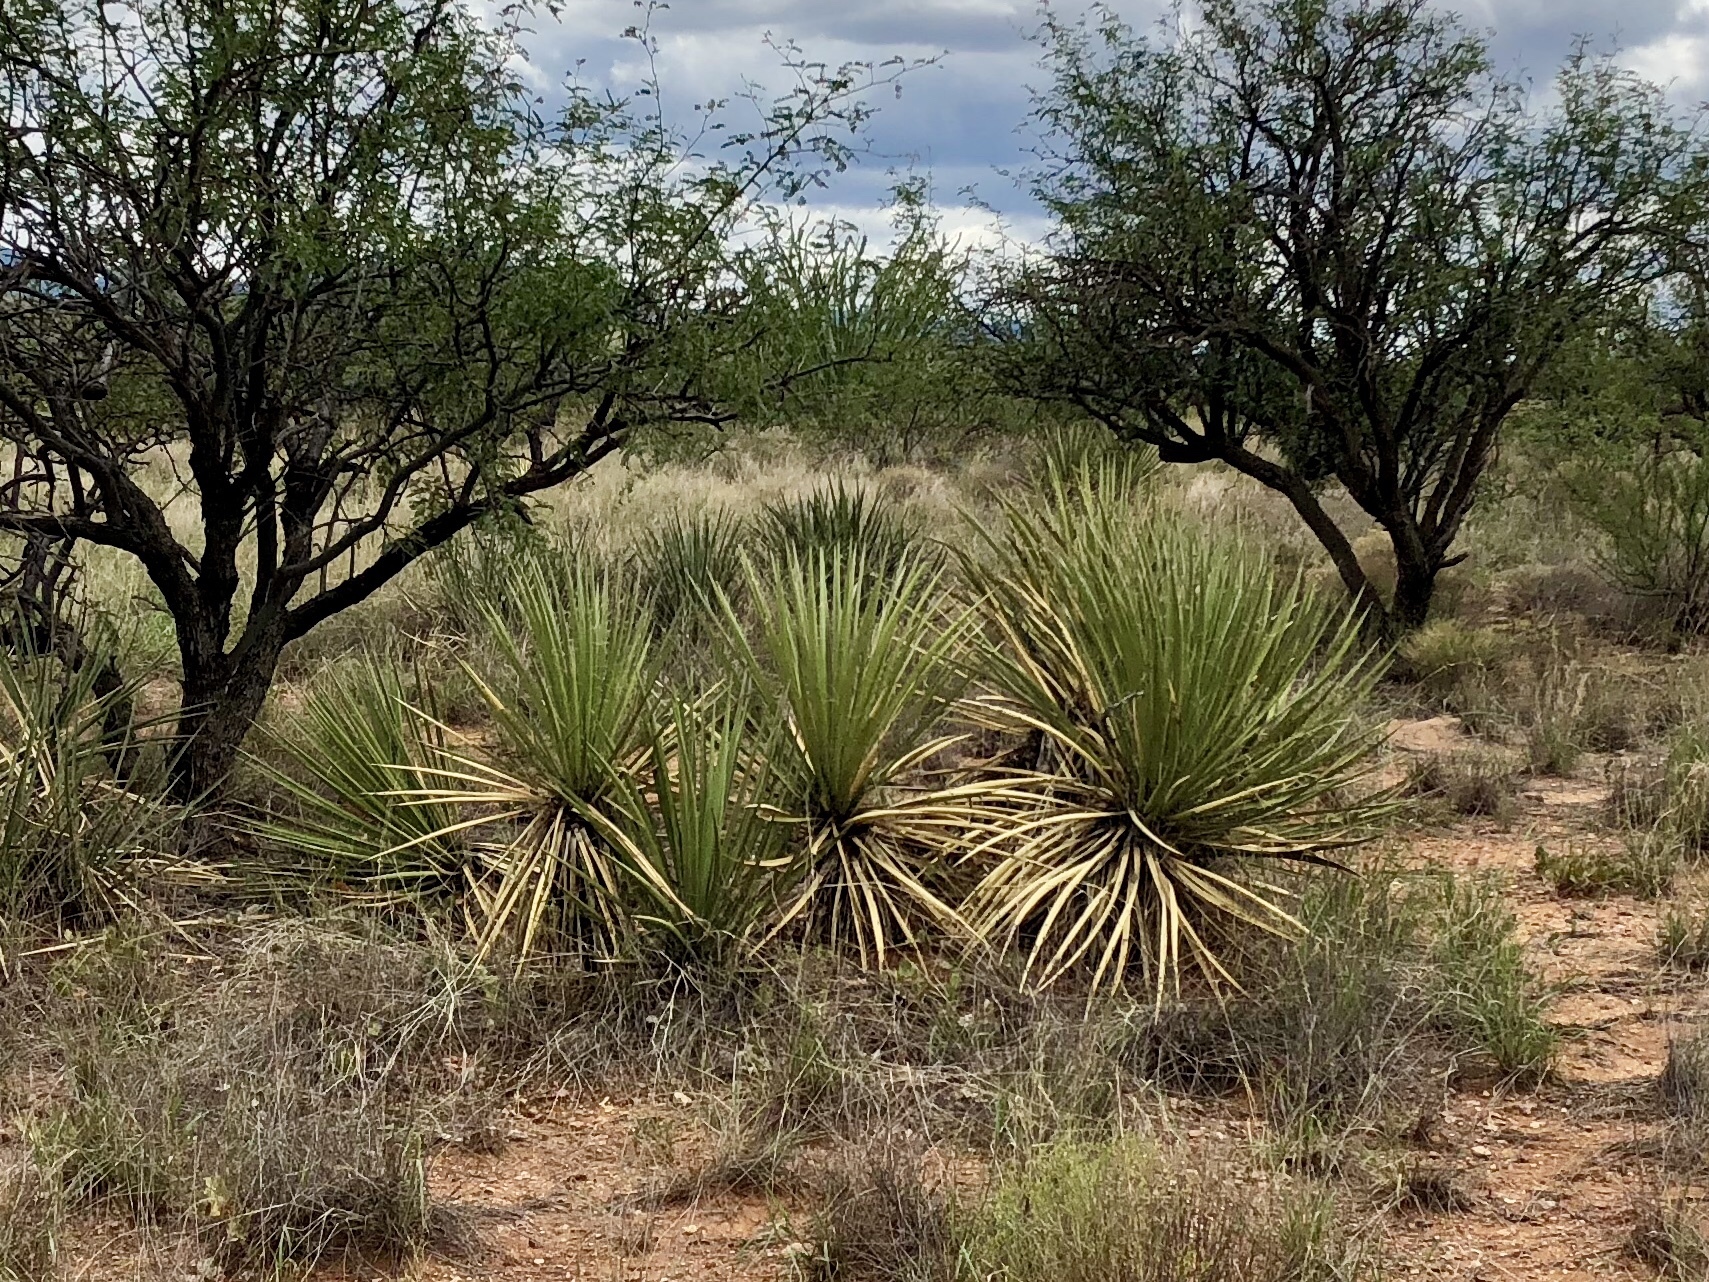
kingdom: Plantae
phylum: Tracheophyta
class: Liliopsida
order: Asparagales
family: Asparagaceae
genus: Yucca
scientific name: Yucca baccata
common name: Banana yucca
